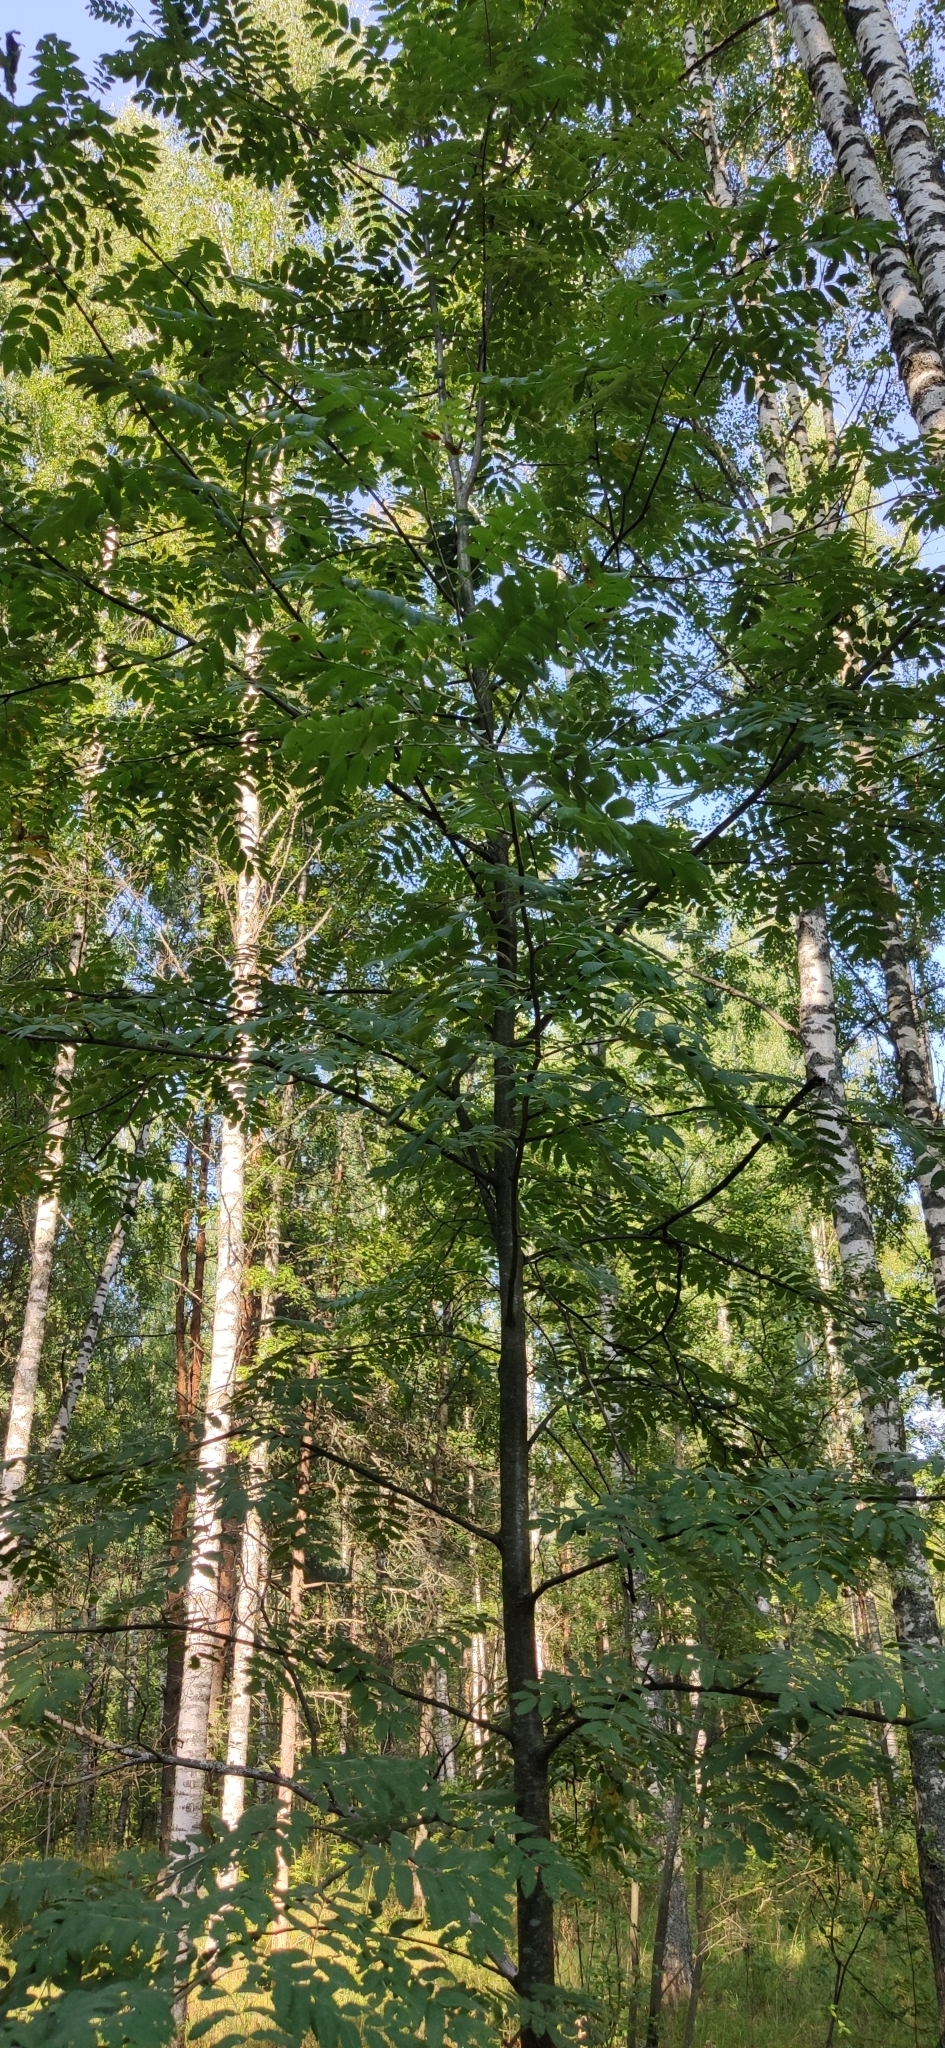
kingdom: Plantae
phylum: Tracheophyta
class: Magnoliopsida
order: Rosales
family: Rosaceae
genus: Sorbus
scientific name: Sorbus aucuparia
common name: Rowan
